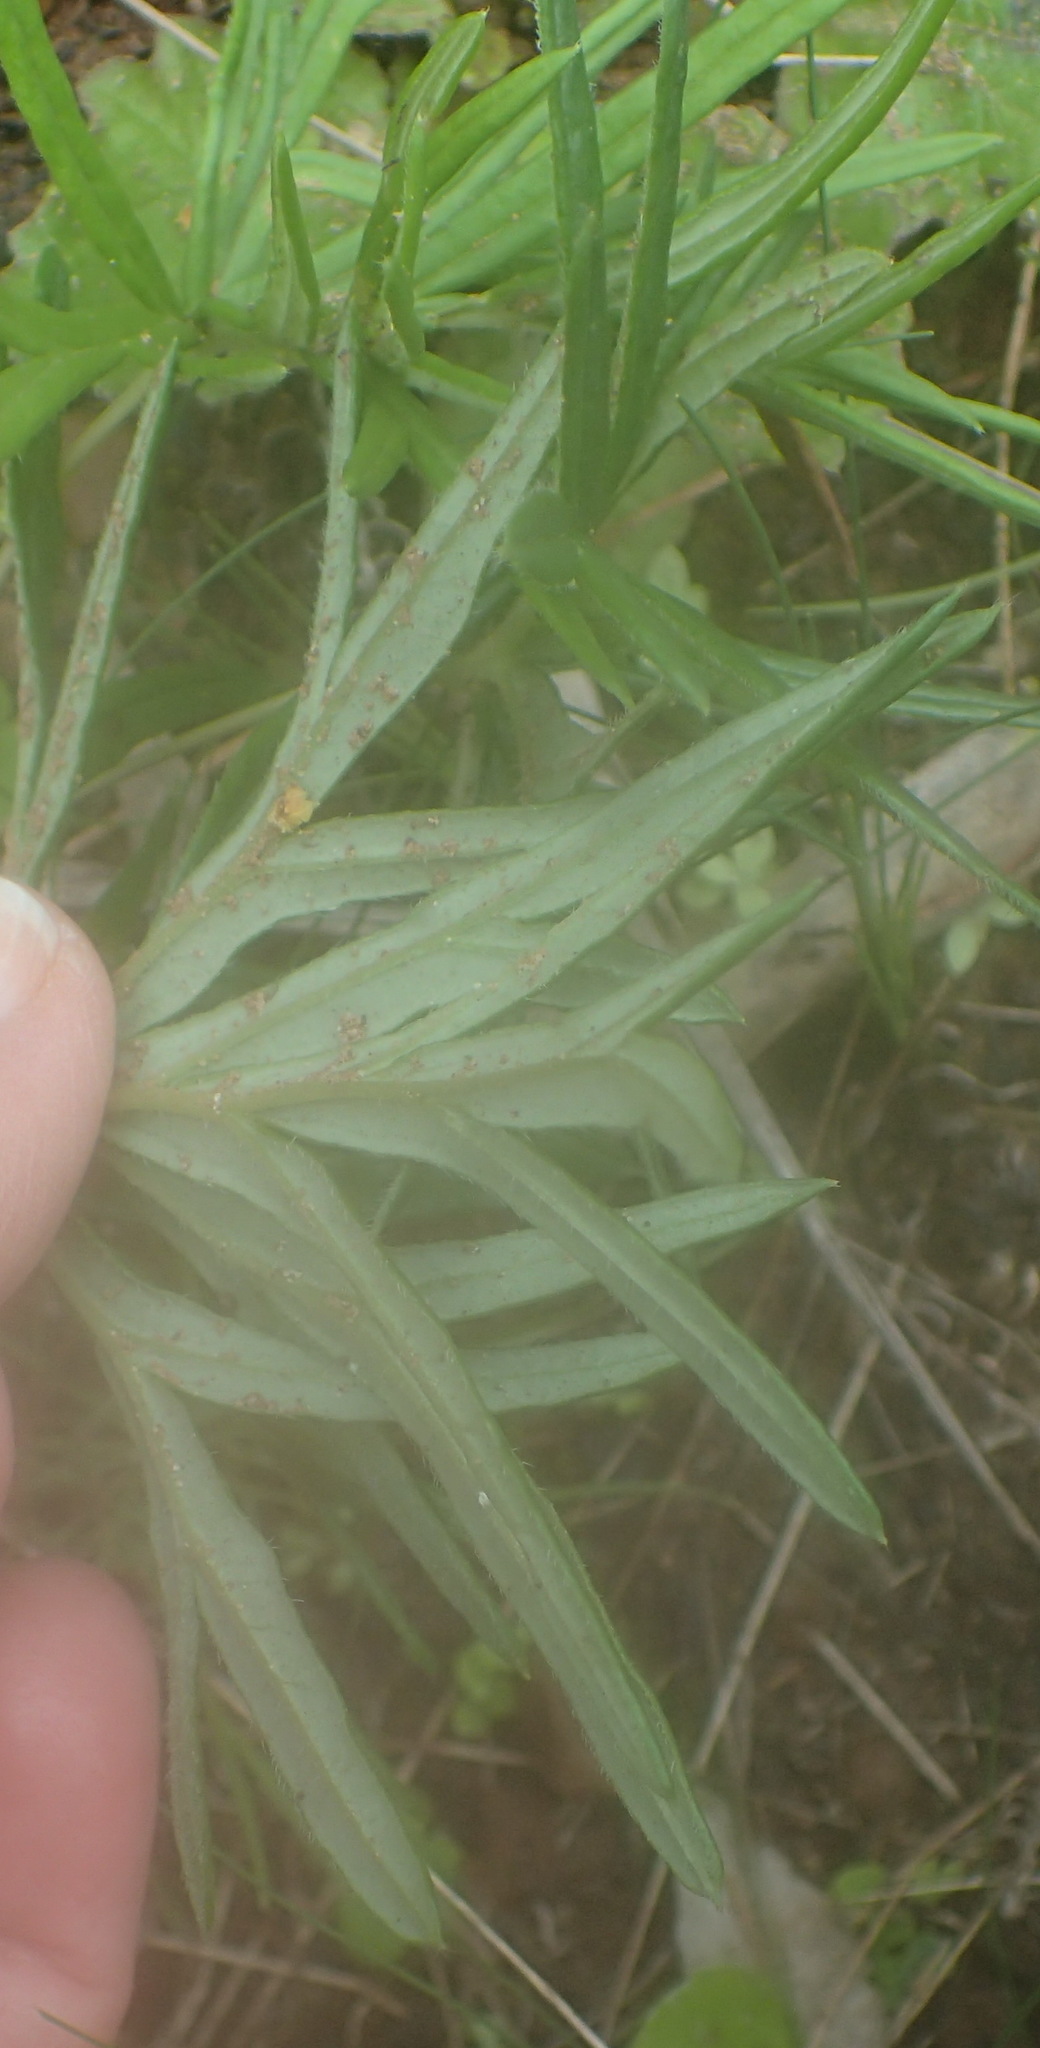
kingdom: Plantae
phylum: Tracheophyta
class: Magnoliopsida
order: Geraniales
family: Geraniaceae
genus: Pelargonium
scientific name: Pelargonium caffrum
